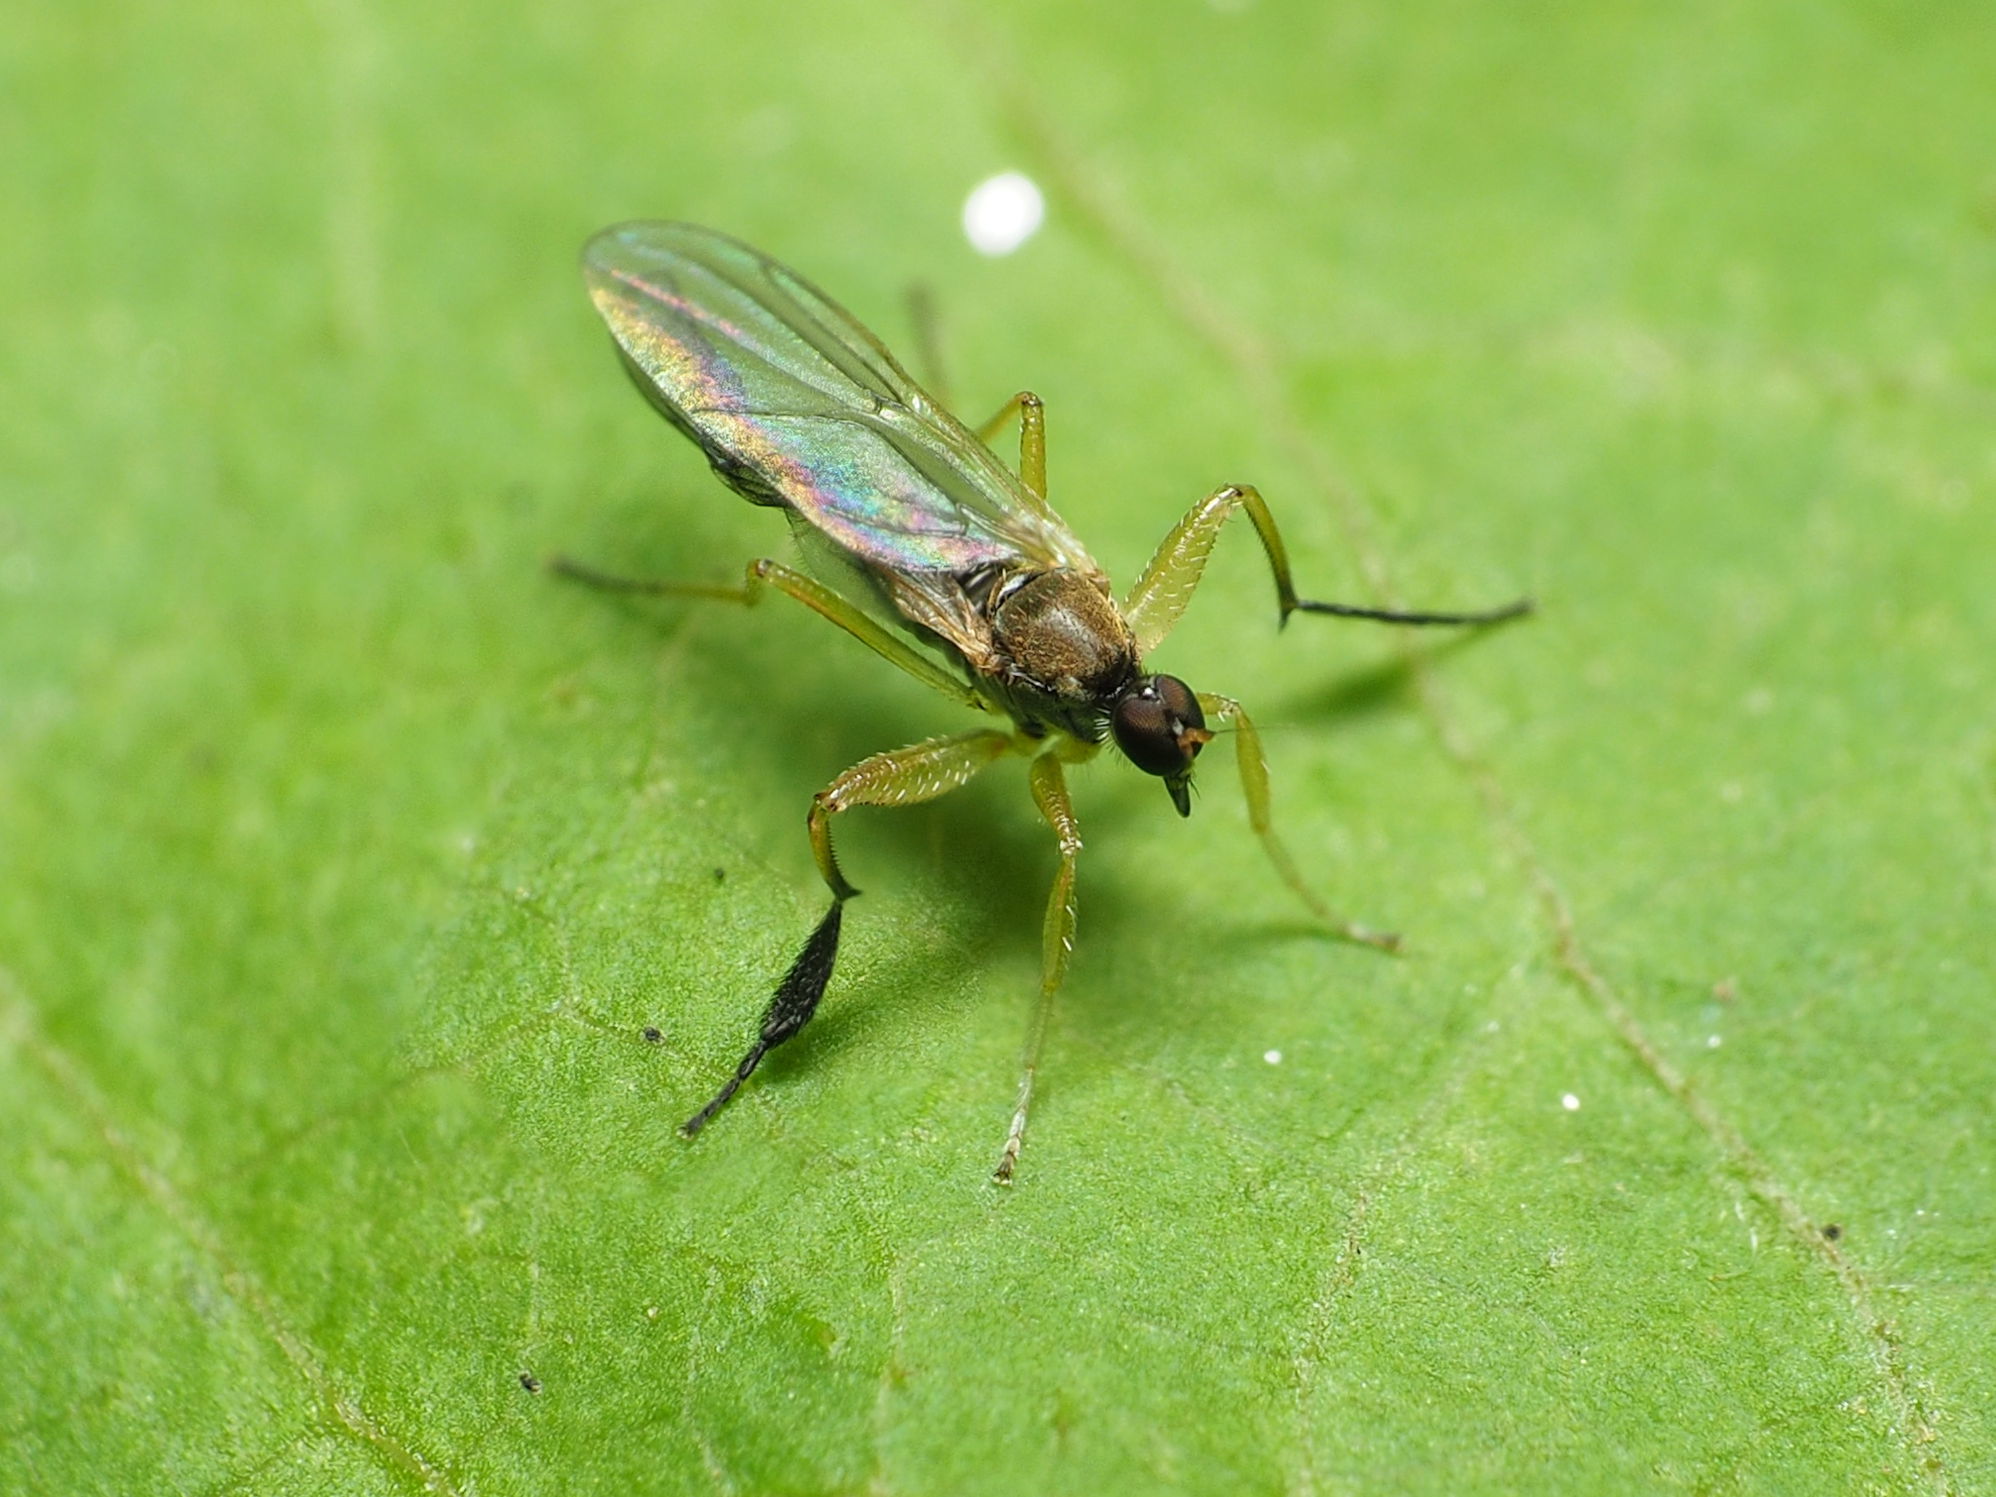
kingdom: Animalia
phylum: Arthropoda
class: Insecta
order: Diptera
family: Hybotidae
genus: Platypalpus
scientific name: Platypalpus discifer
